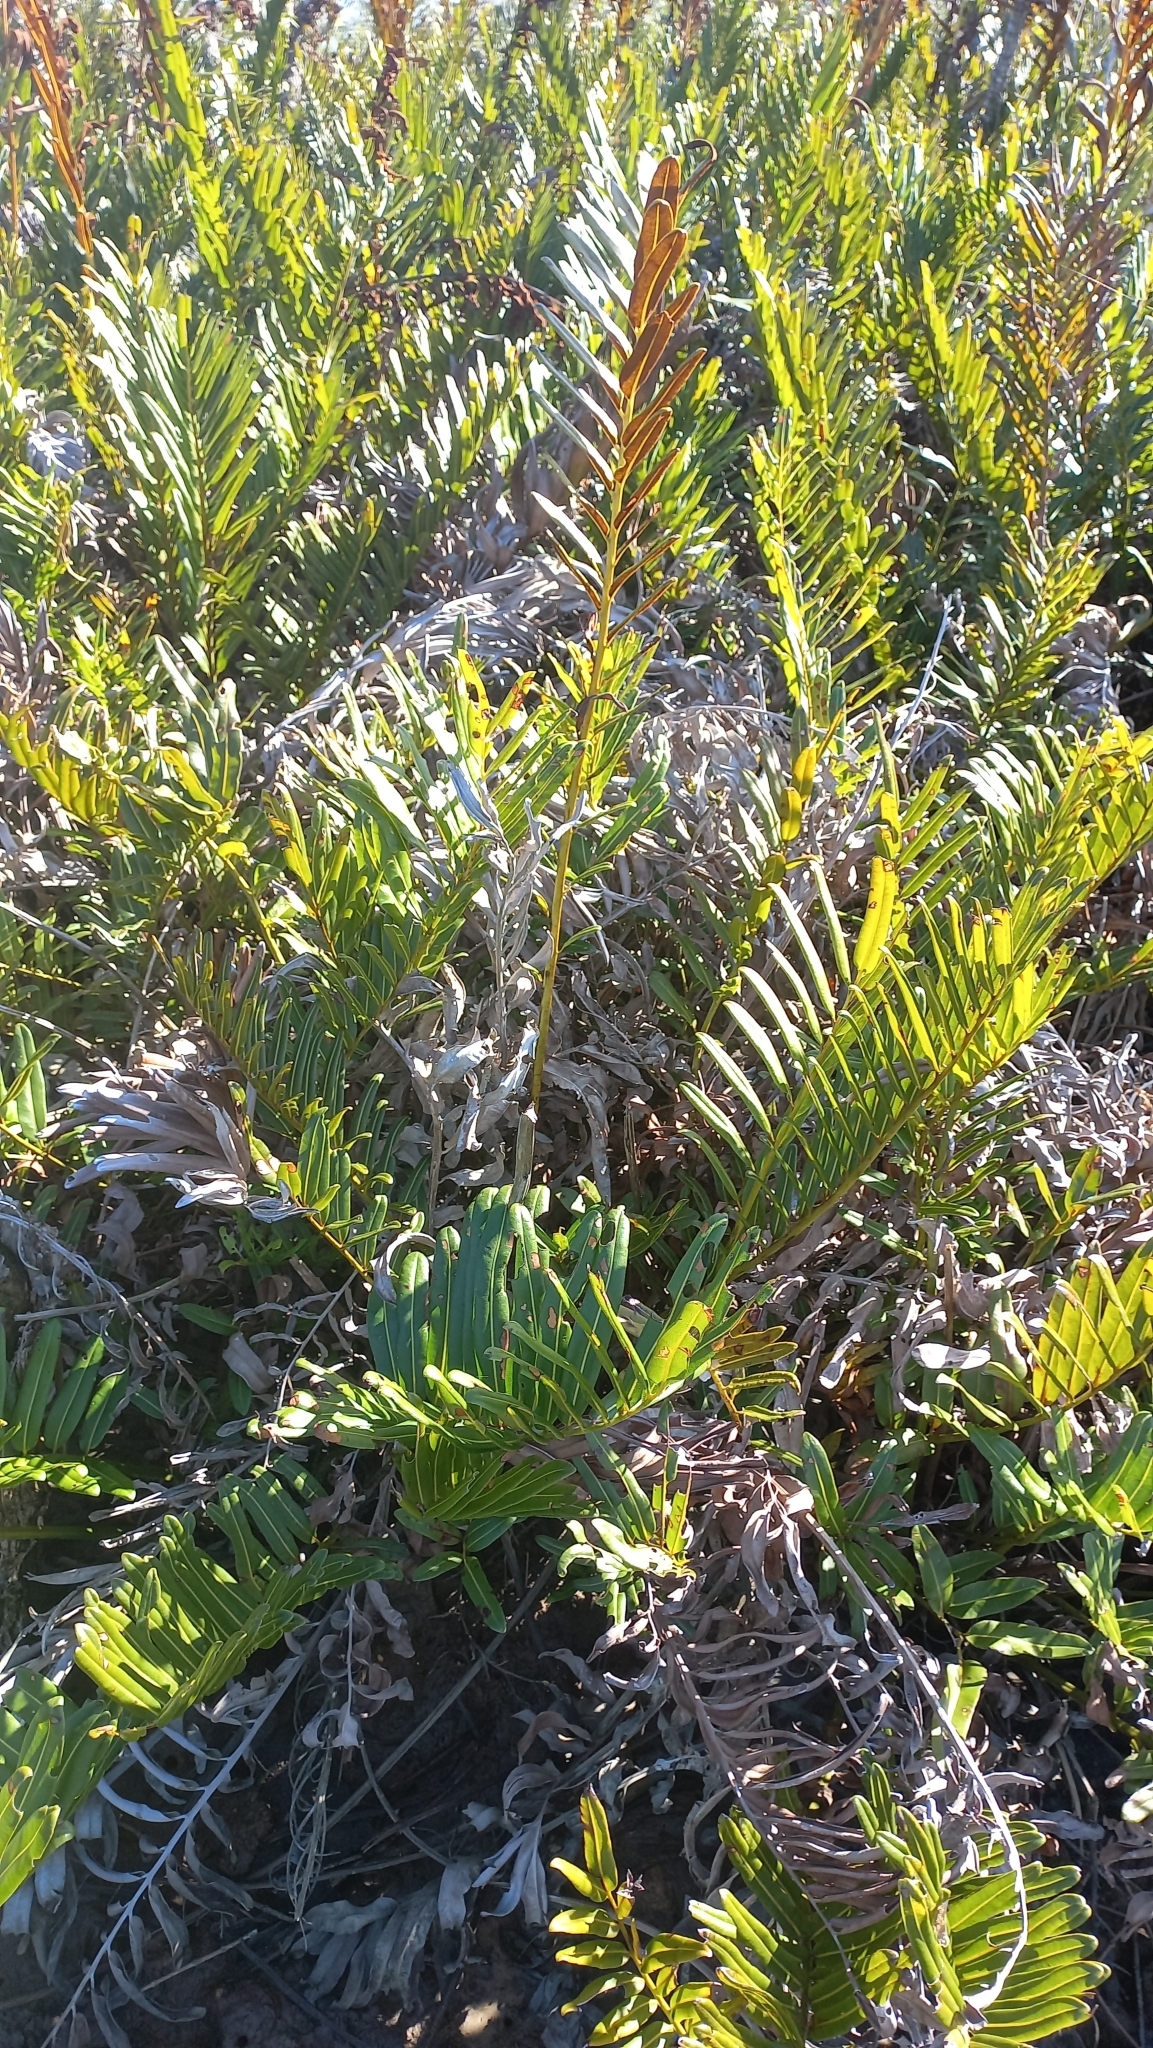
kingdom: Plantae
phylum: Tracheophyta
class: Polypodiopsida
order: Polypodiales
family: Pteridaceae
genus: Acrostichum
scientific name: Acrostichum danaeifolium
